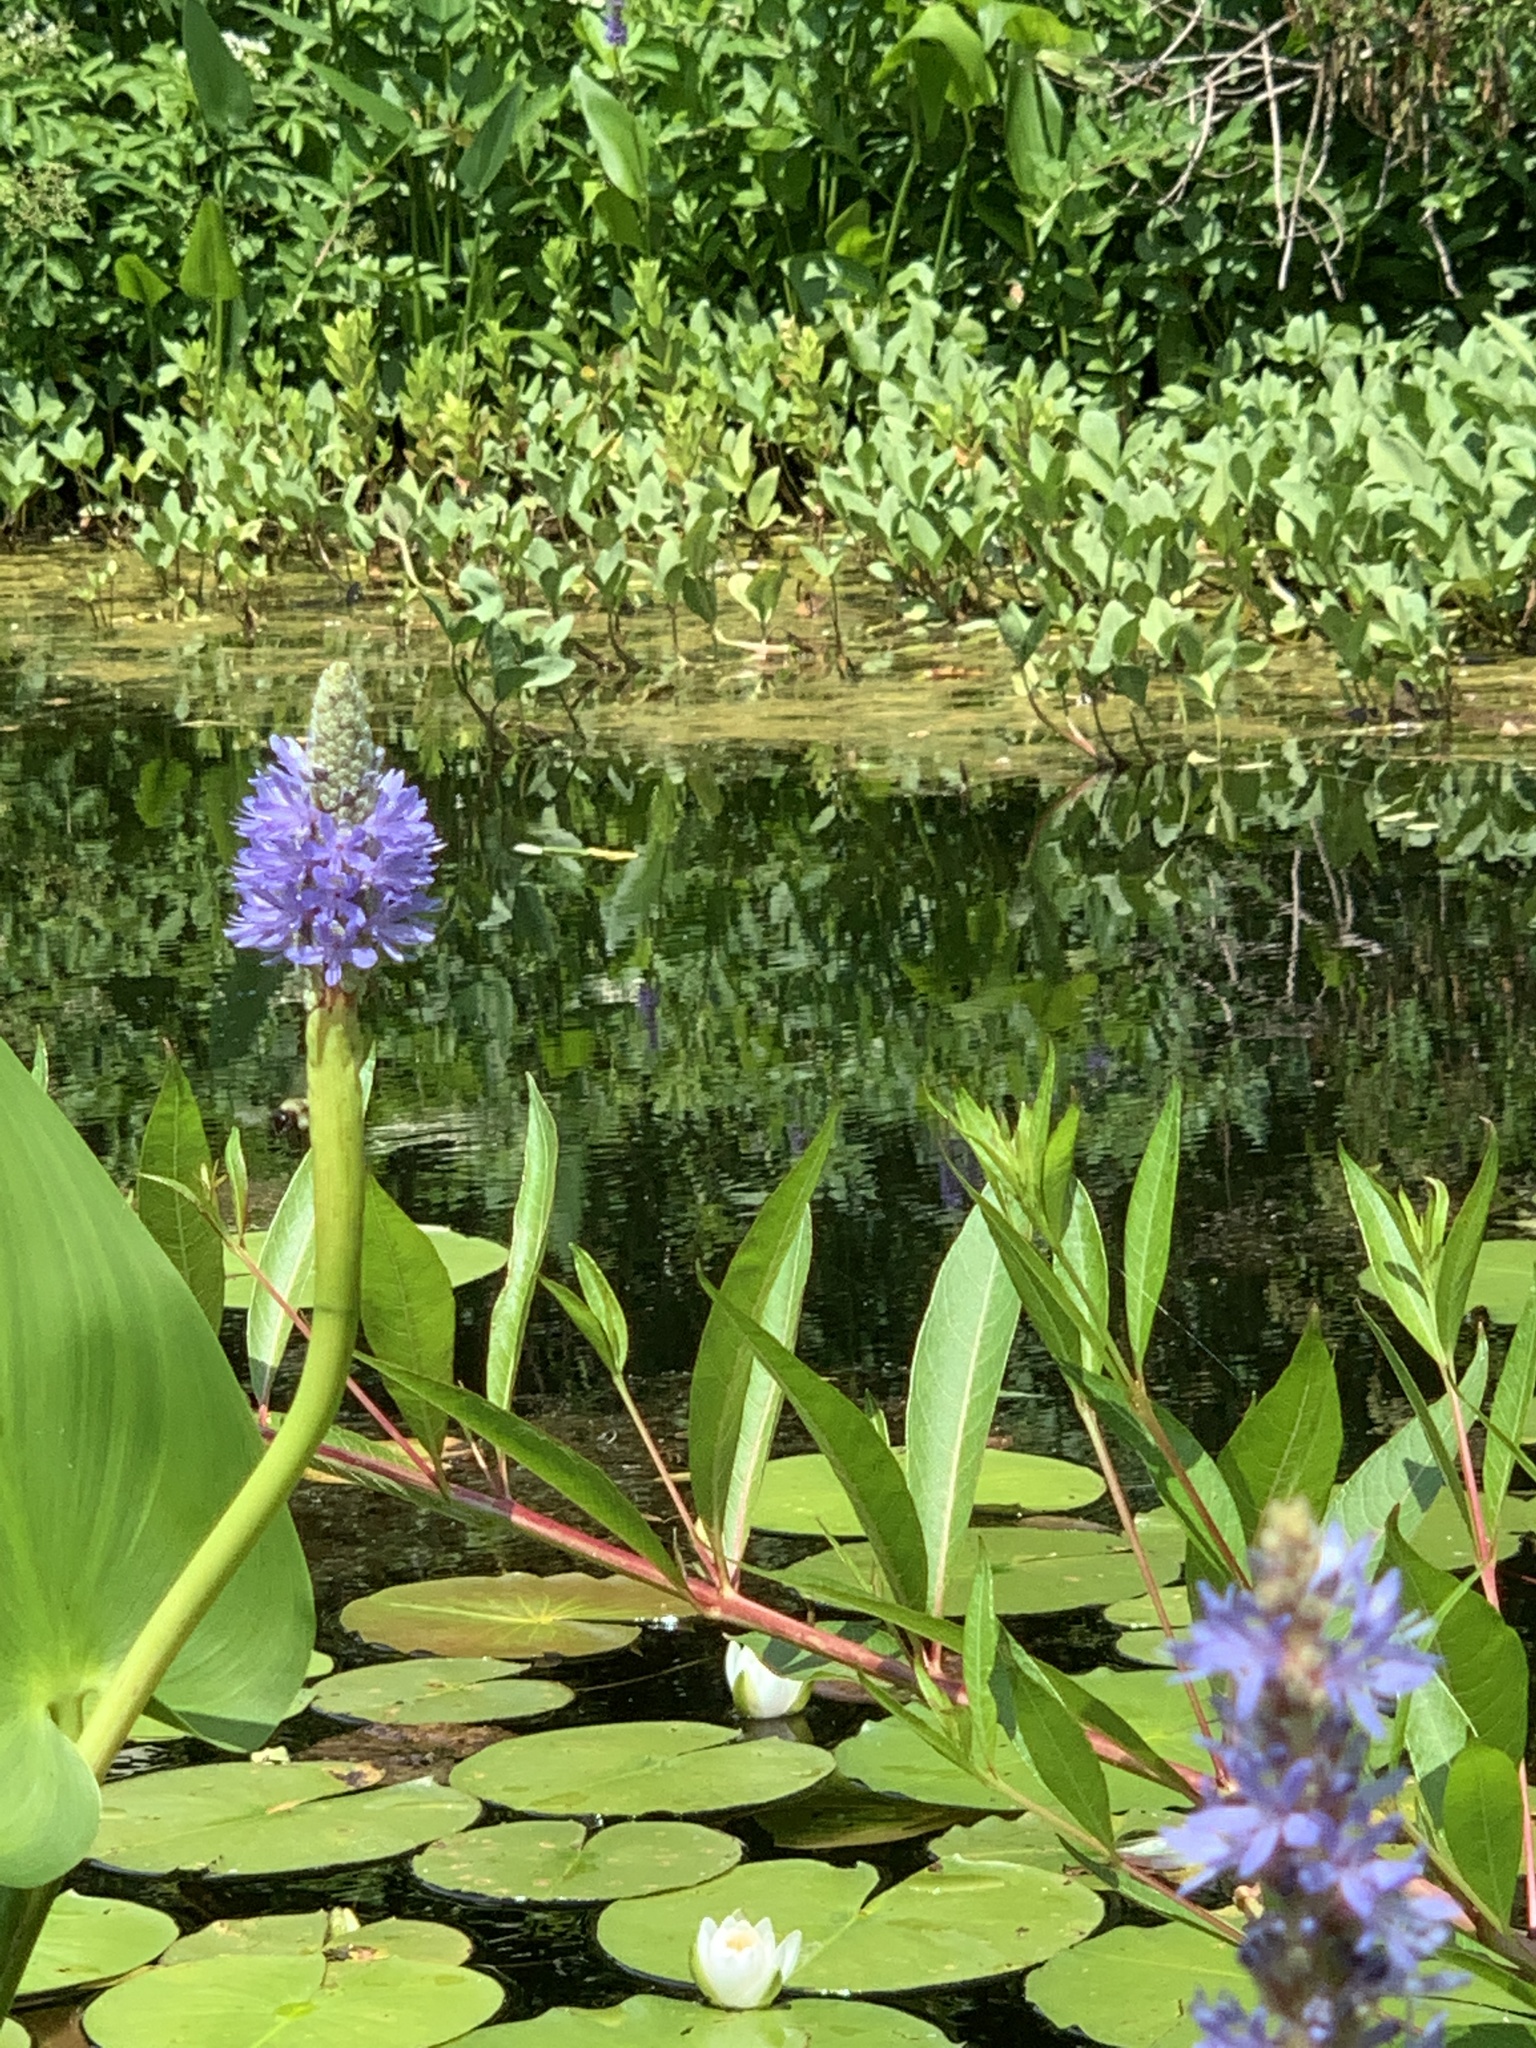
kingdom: Plantae
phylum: Tracheophyta
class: Liliopsida
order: Commelinales
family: Pontederiaceae
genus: Pontederia
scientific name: Pontederia cordata
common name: Pickerelweed
